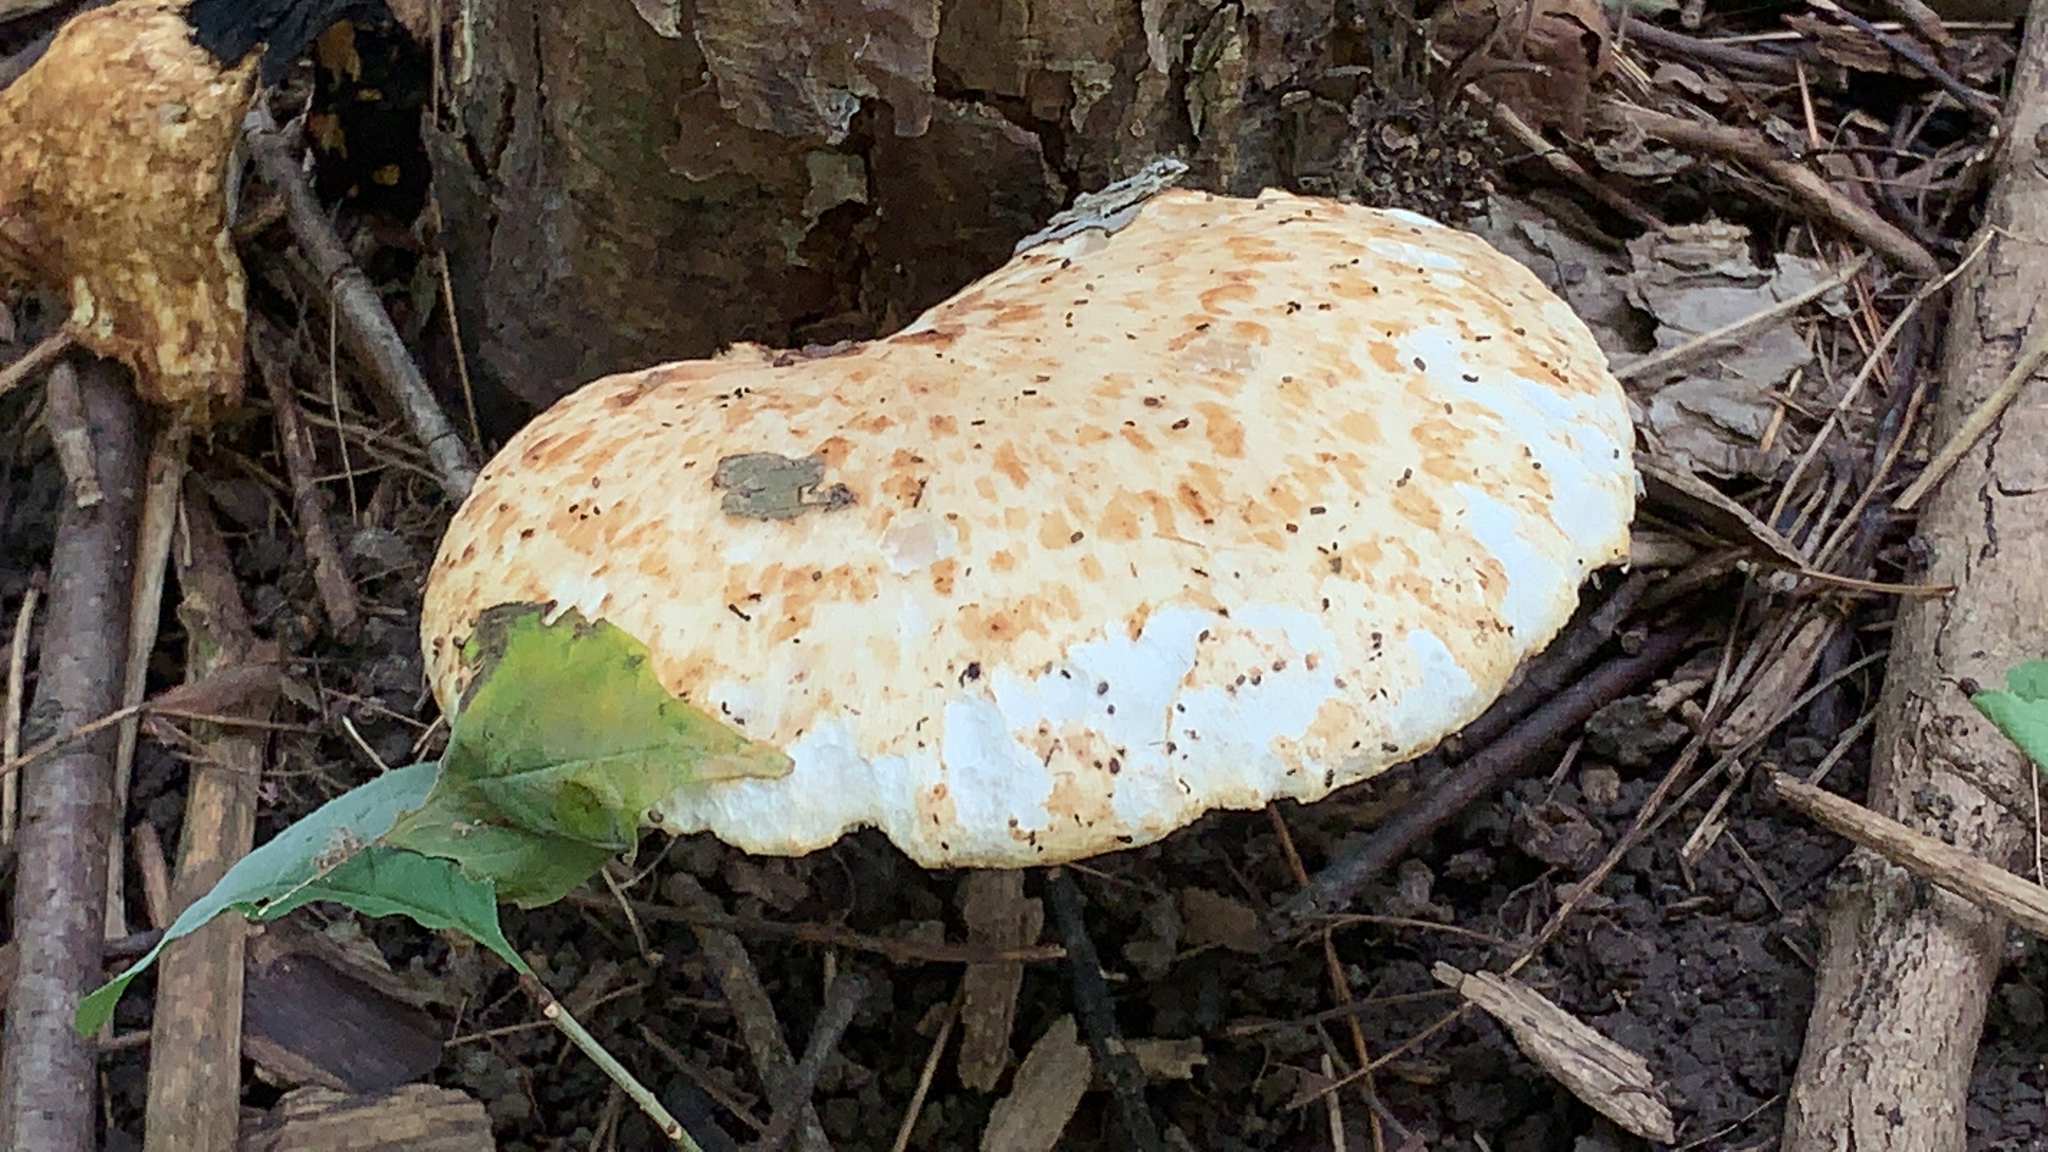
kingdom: Fungi
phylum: Basidiomycota
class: Agaricomycetes
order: Polyporales
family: Polyporaceae
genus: Cerioporus
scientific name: Cerioporus squamosus
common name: Dryad's saddle
